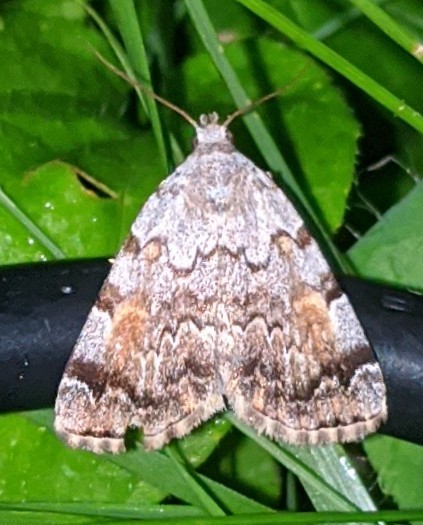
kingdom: Animalia
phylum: Arthropoda
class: Insecta
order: Lepidoptera
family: Erebidae
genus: Idia
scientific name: Idia americalis
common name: American idia moth
